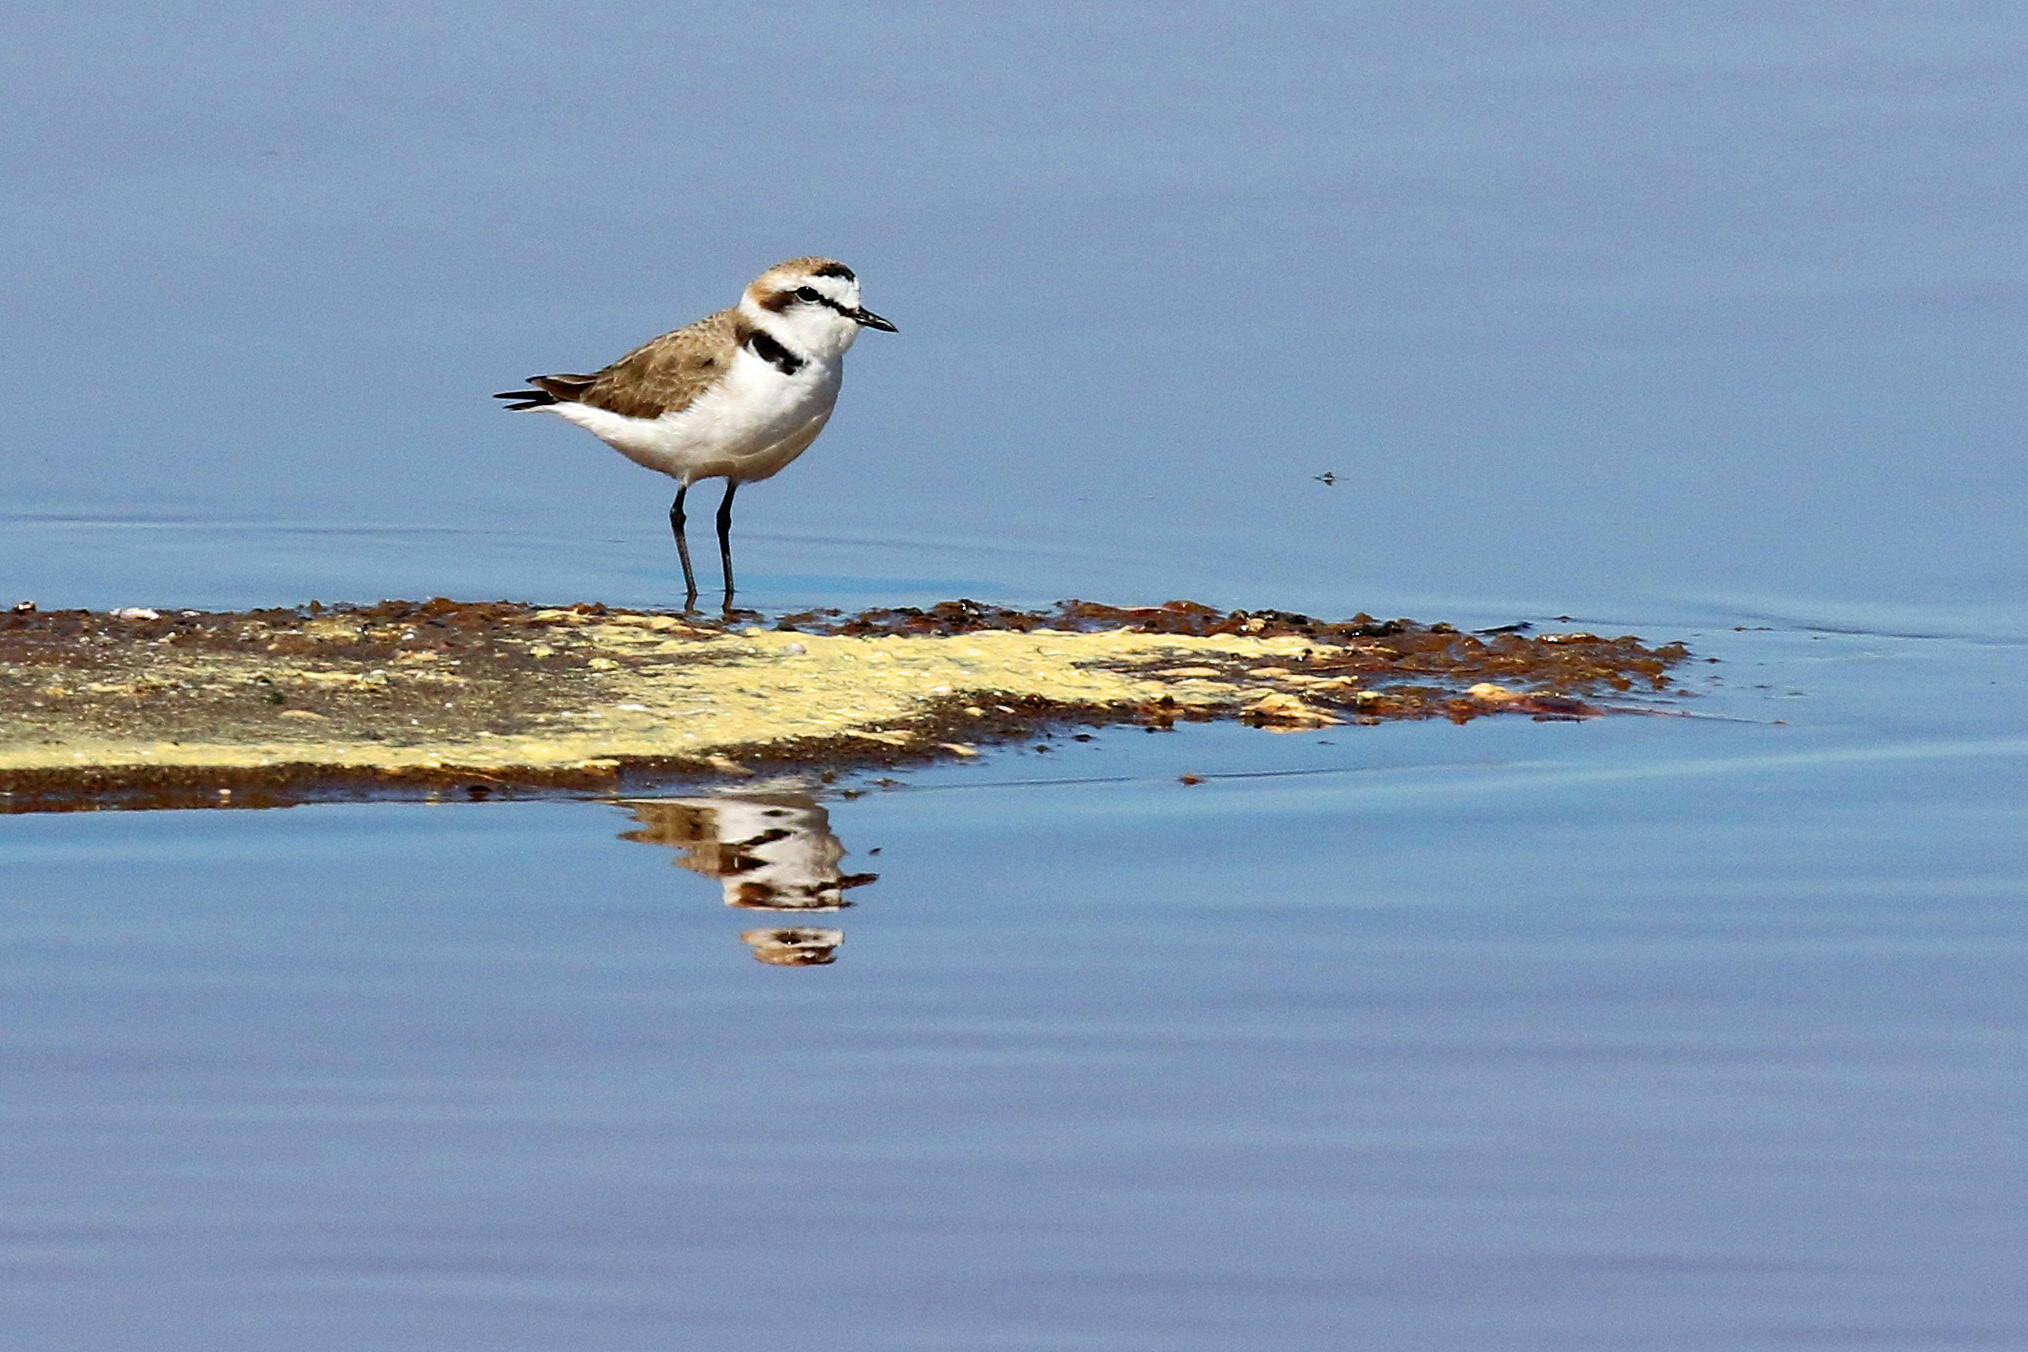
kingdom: Animalia
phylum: Chordata
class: Aves
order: Charadriiformes
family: Charadriidae
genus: Charadrius
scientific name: Charadrius alexandrinus
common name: Kentish plover
